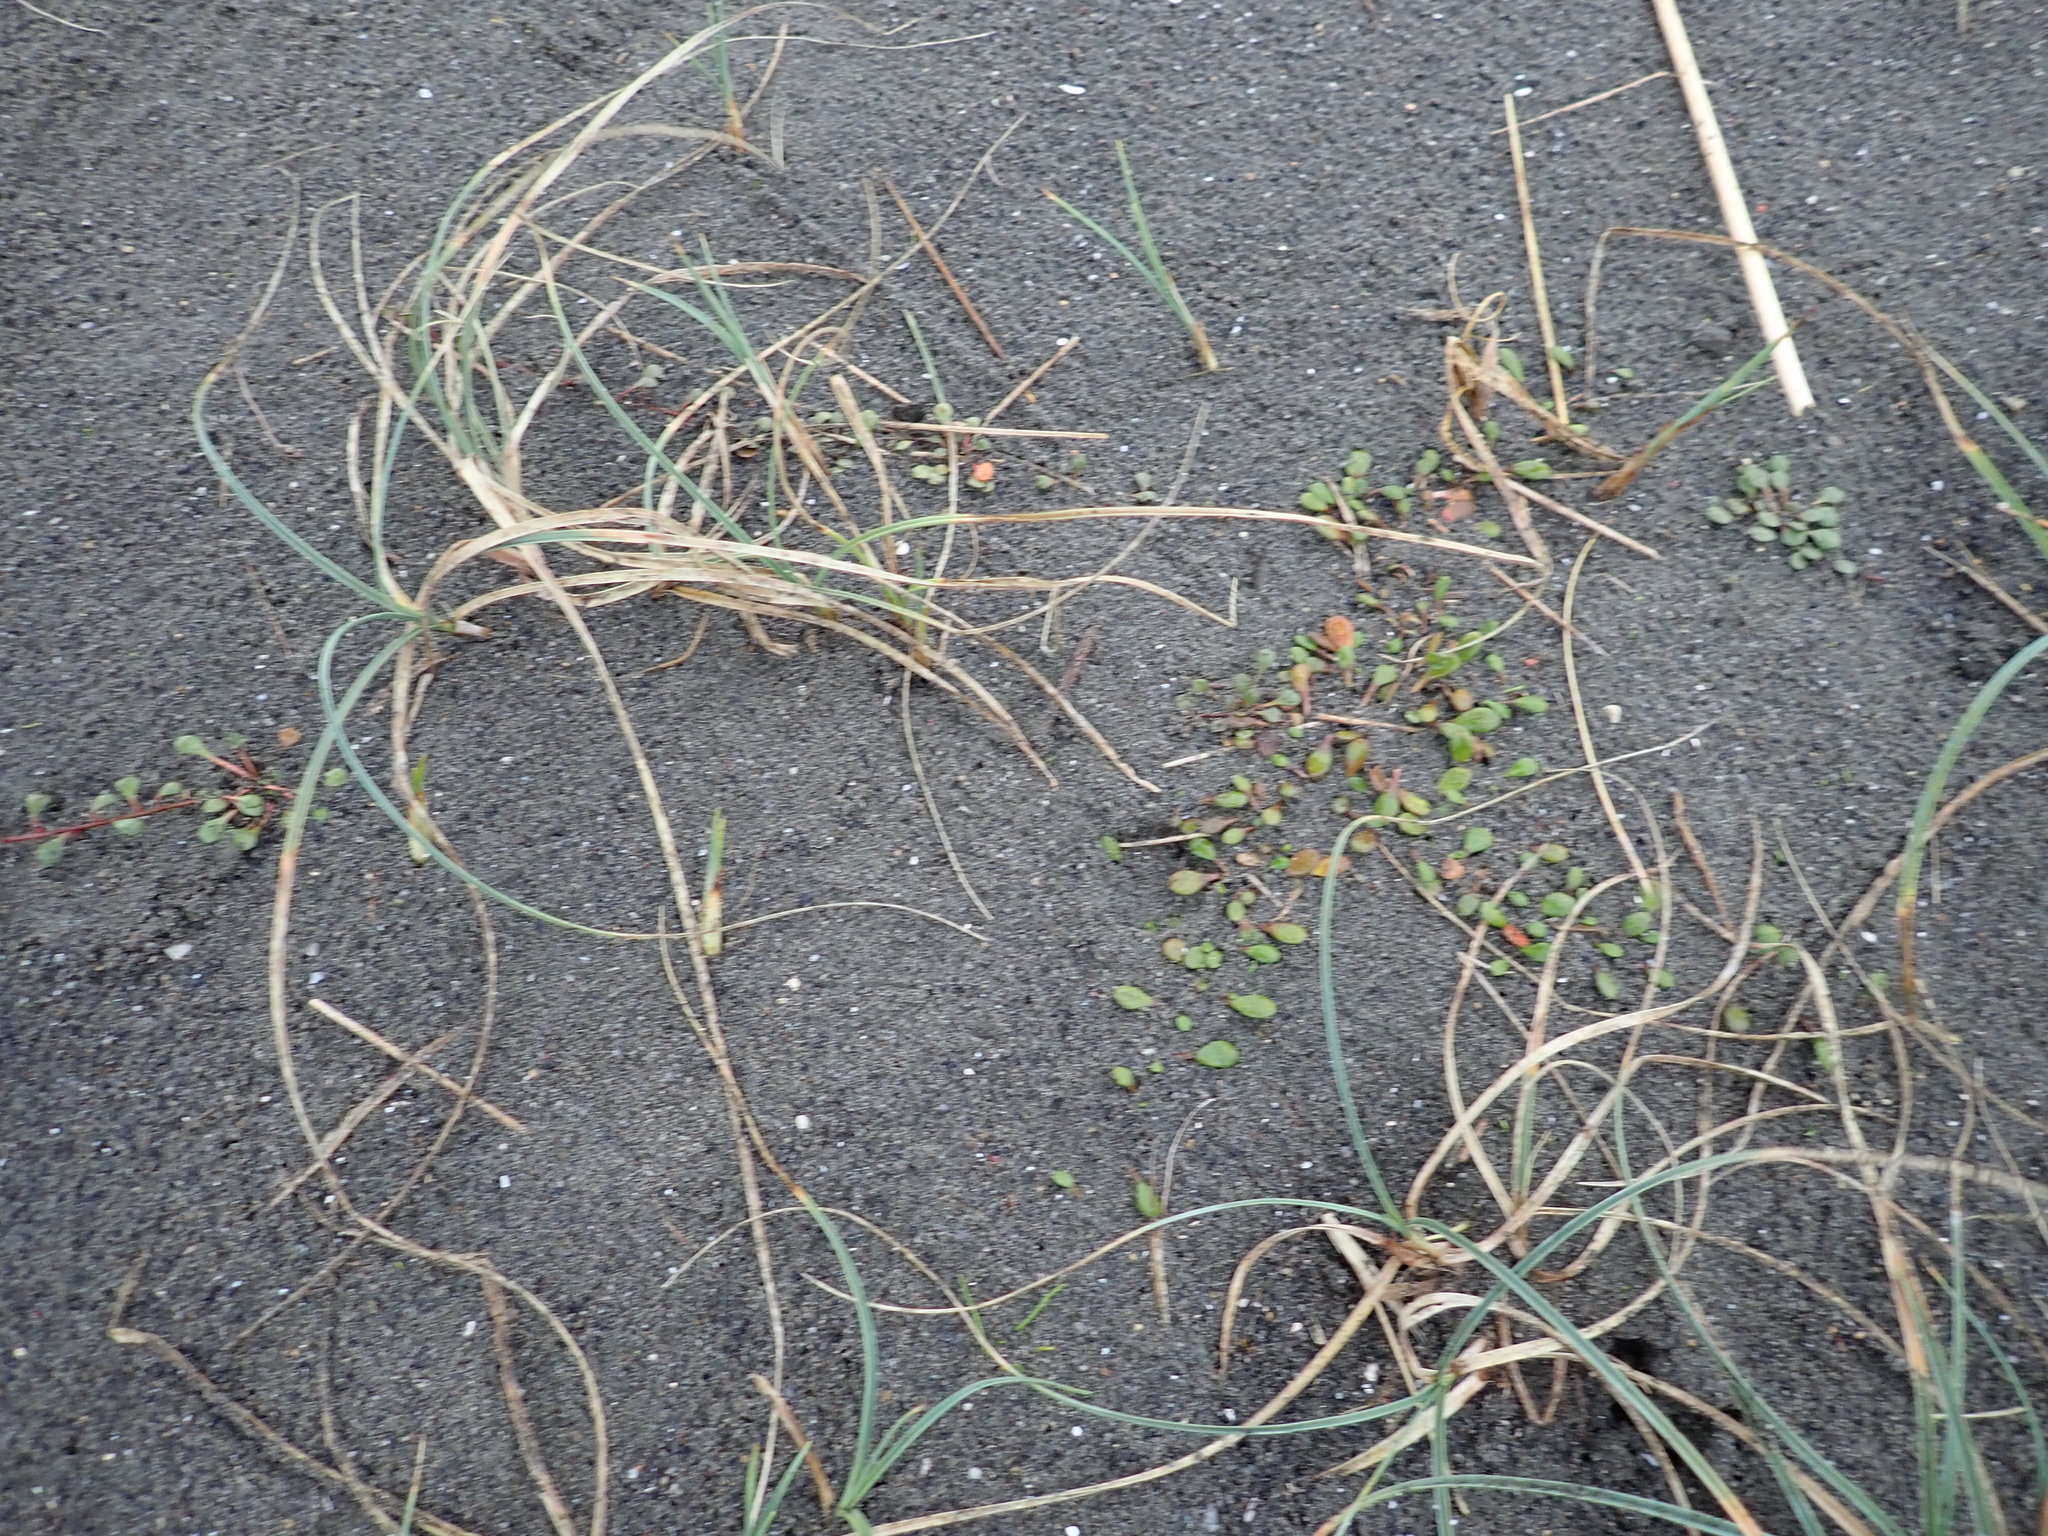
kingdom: Plantae
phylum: Tracheophyta
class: Liliopsida
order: Poales
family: Cyperaceae
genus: Carex
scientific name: Carex pumila
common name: Dwarf sedge
